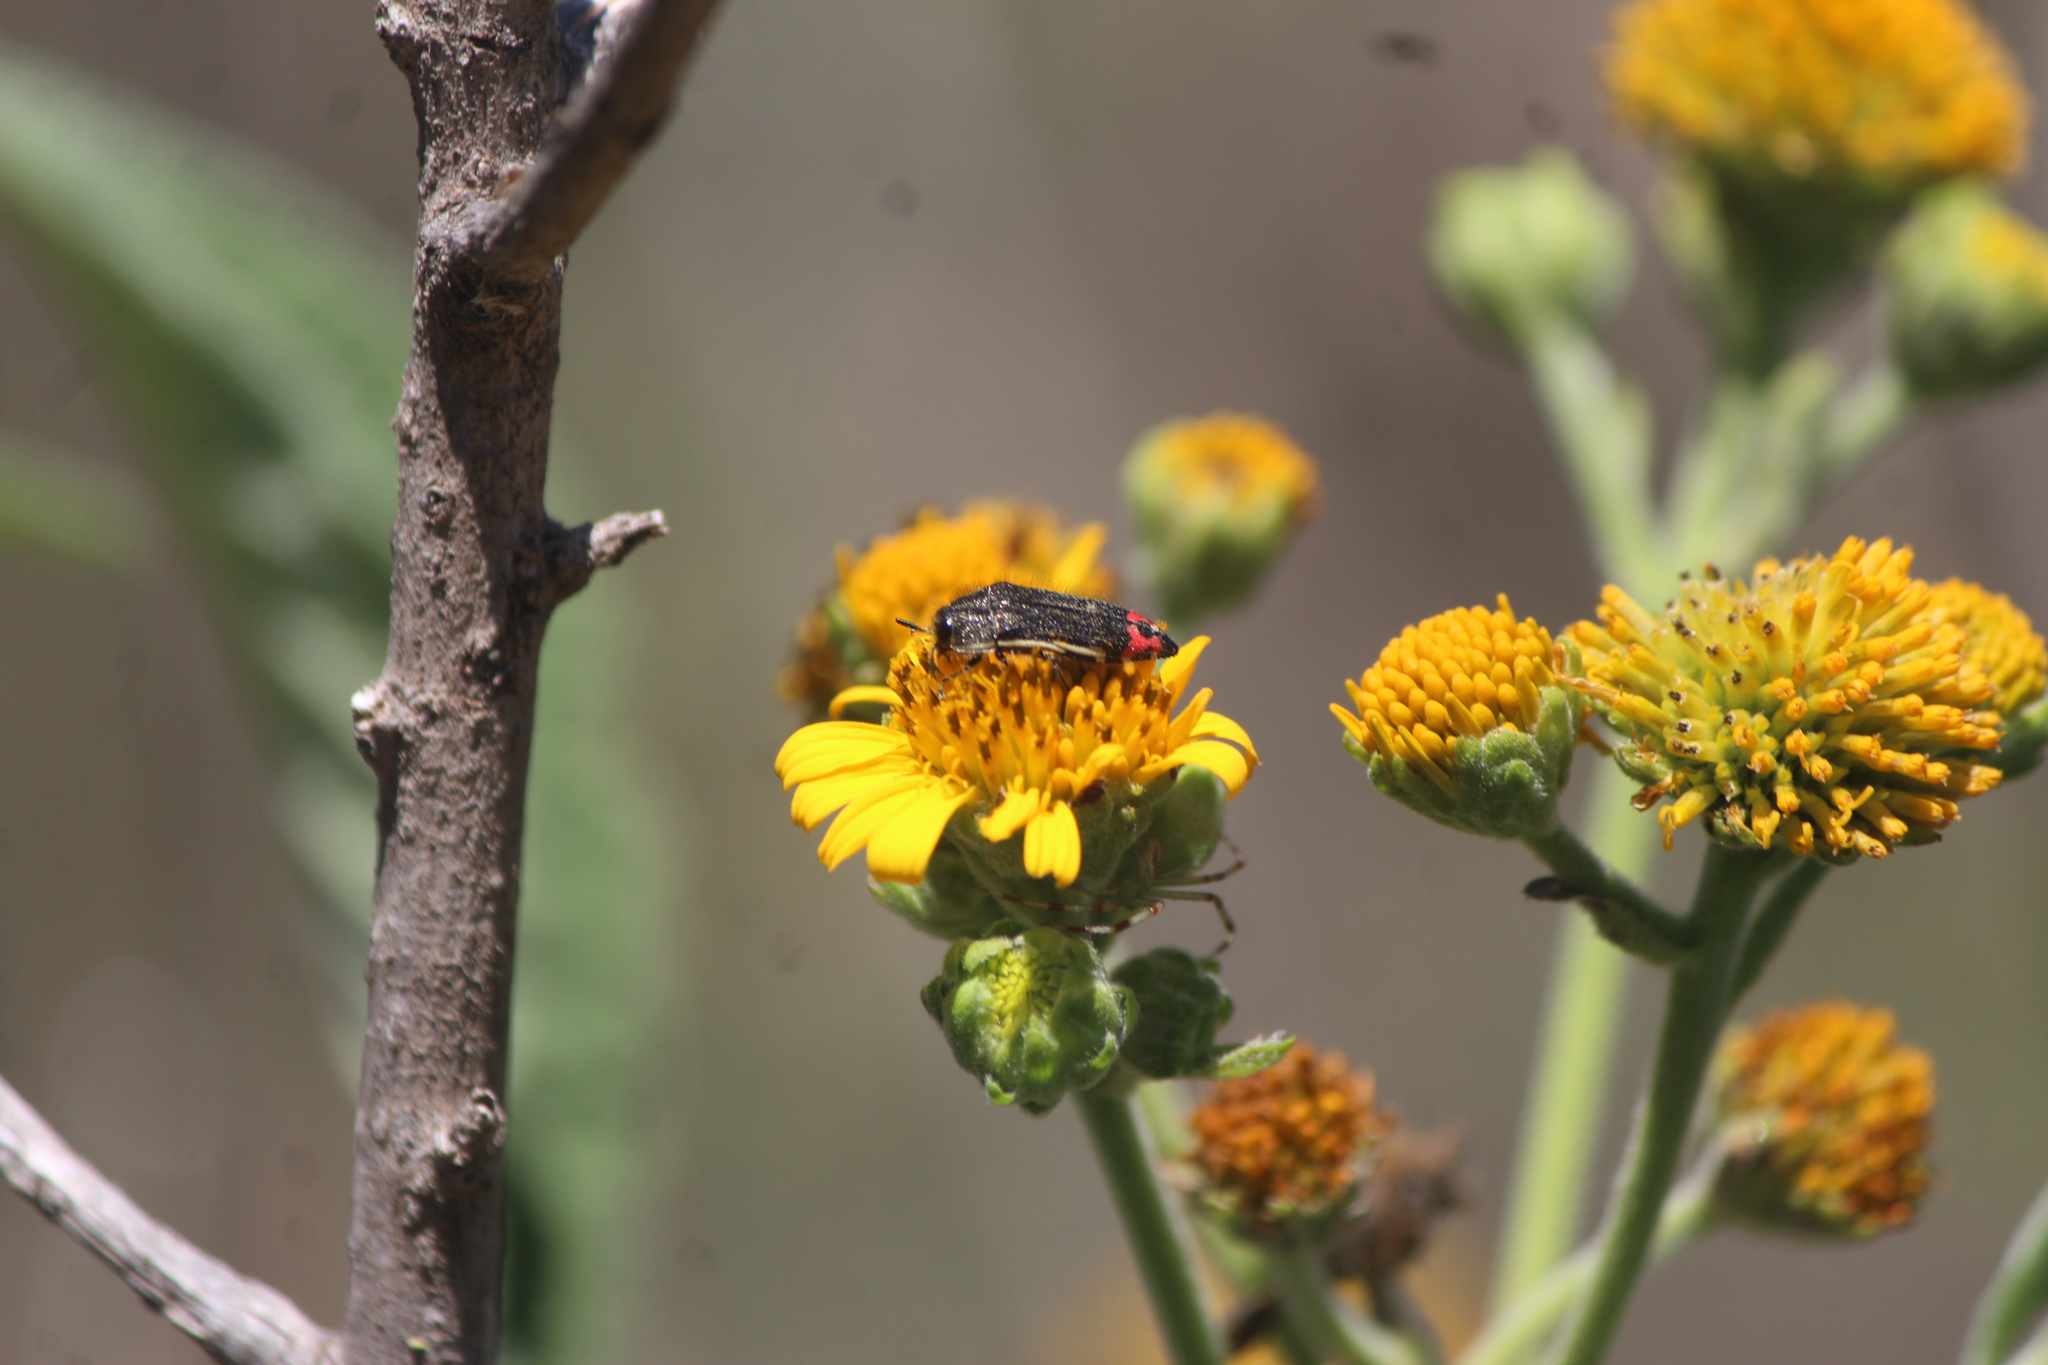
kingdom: Animalia
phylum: Arthropoda
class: Insecta
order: Coleoptera
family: Buprestidae
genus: Acmaeodera
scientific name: Acmaeodera flavomarginata
